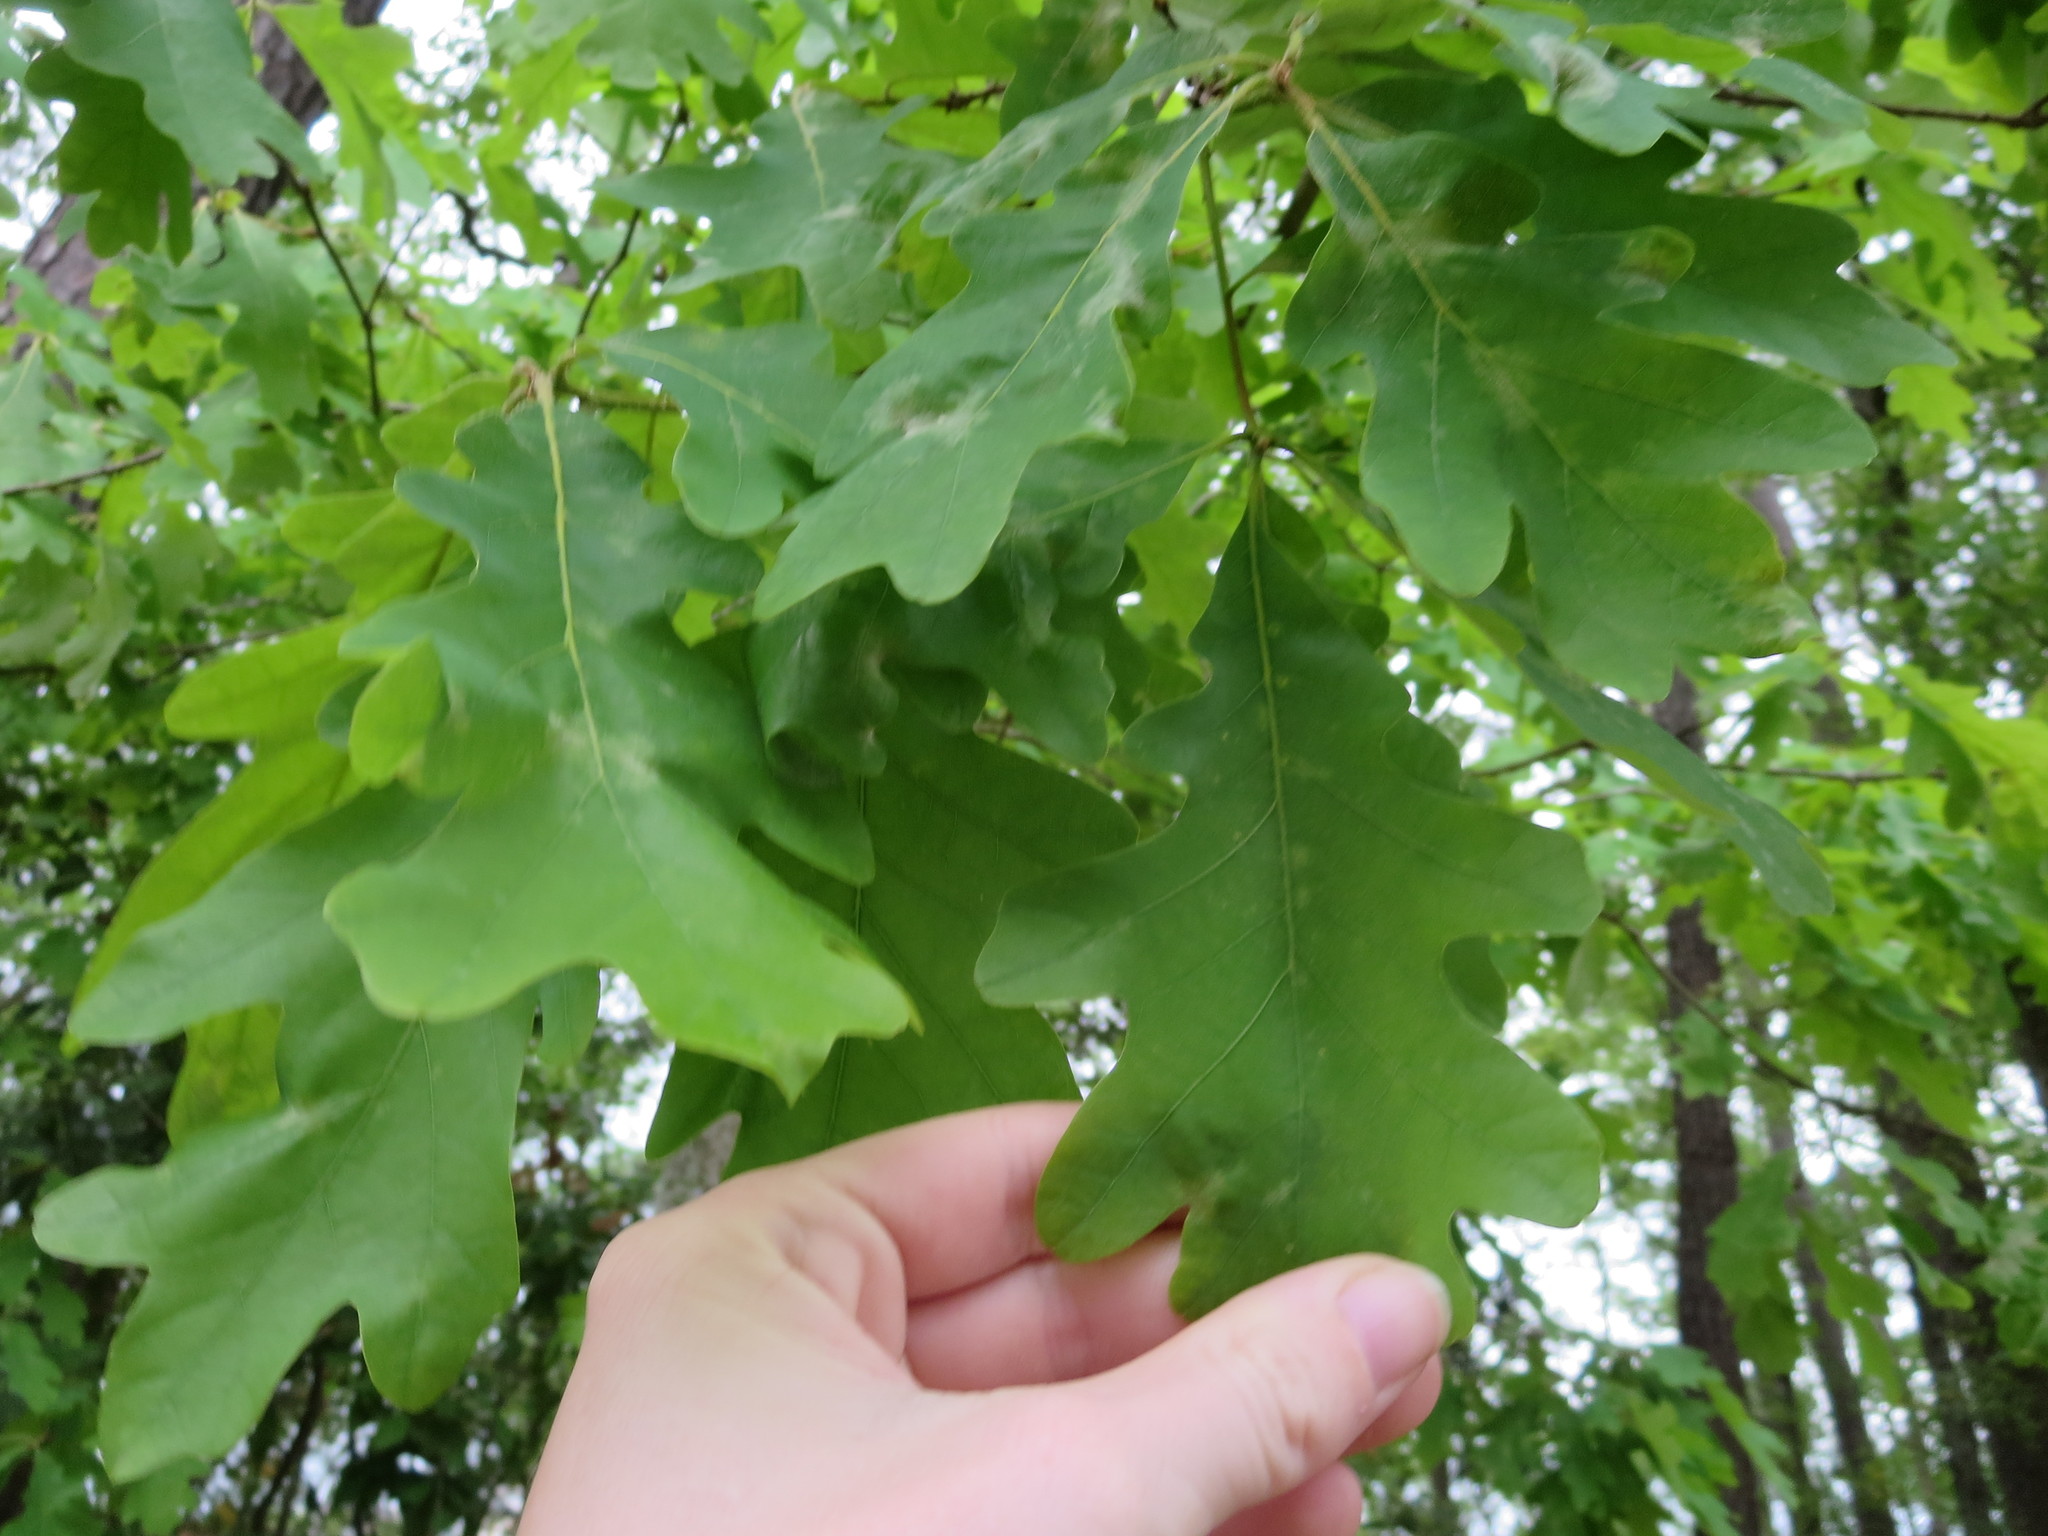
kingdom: Plantae
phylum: Tracheophyta
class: Magnoliopsida
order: Fagales
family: Fagaceae
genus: Quercus
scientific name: Quercus alba
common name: White oak
